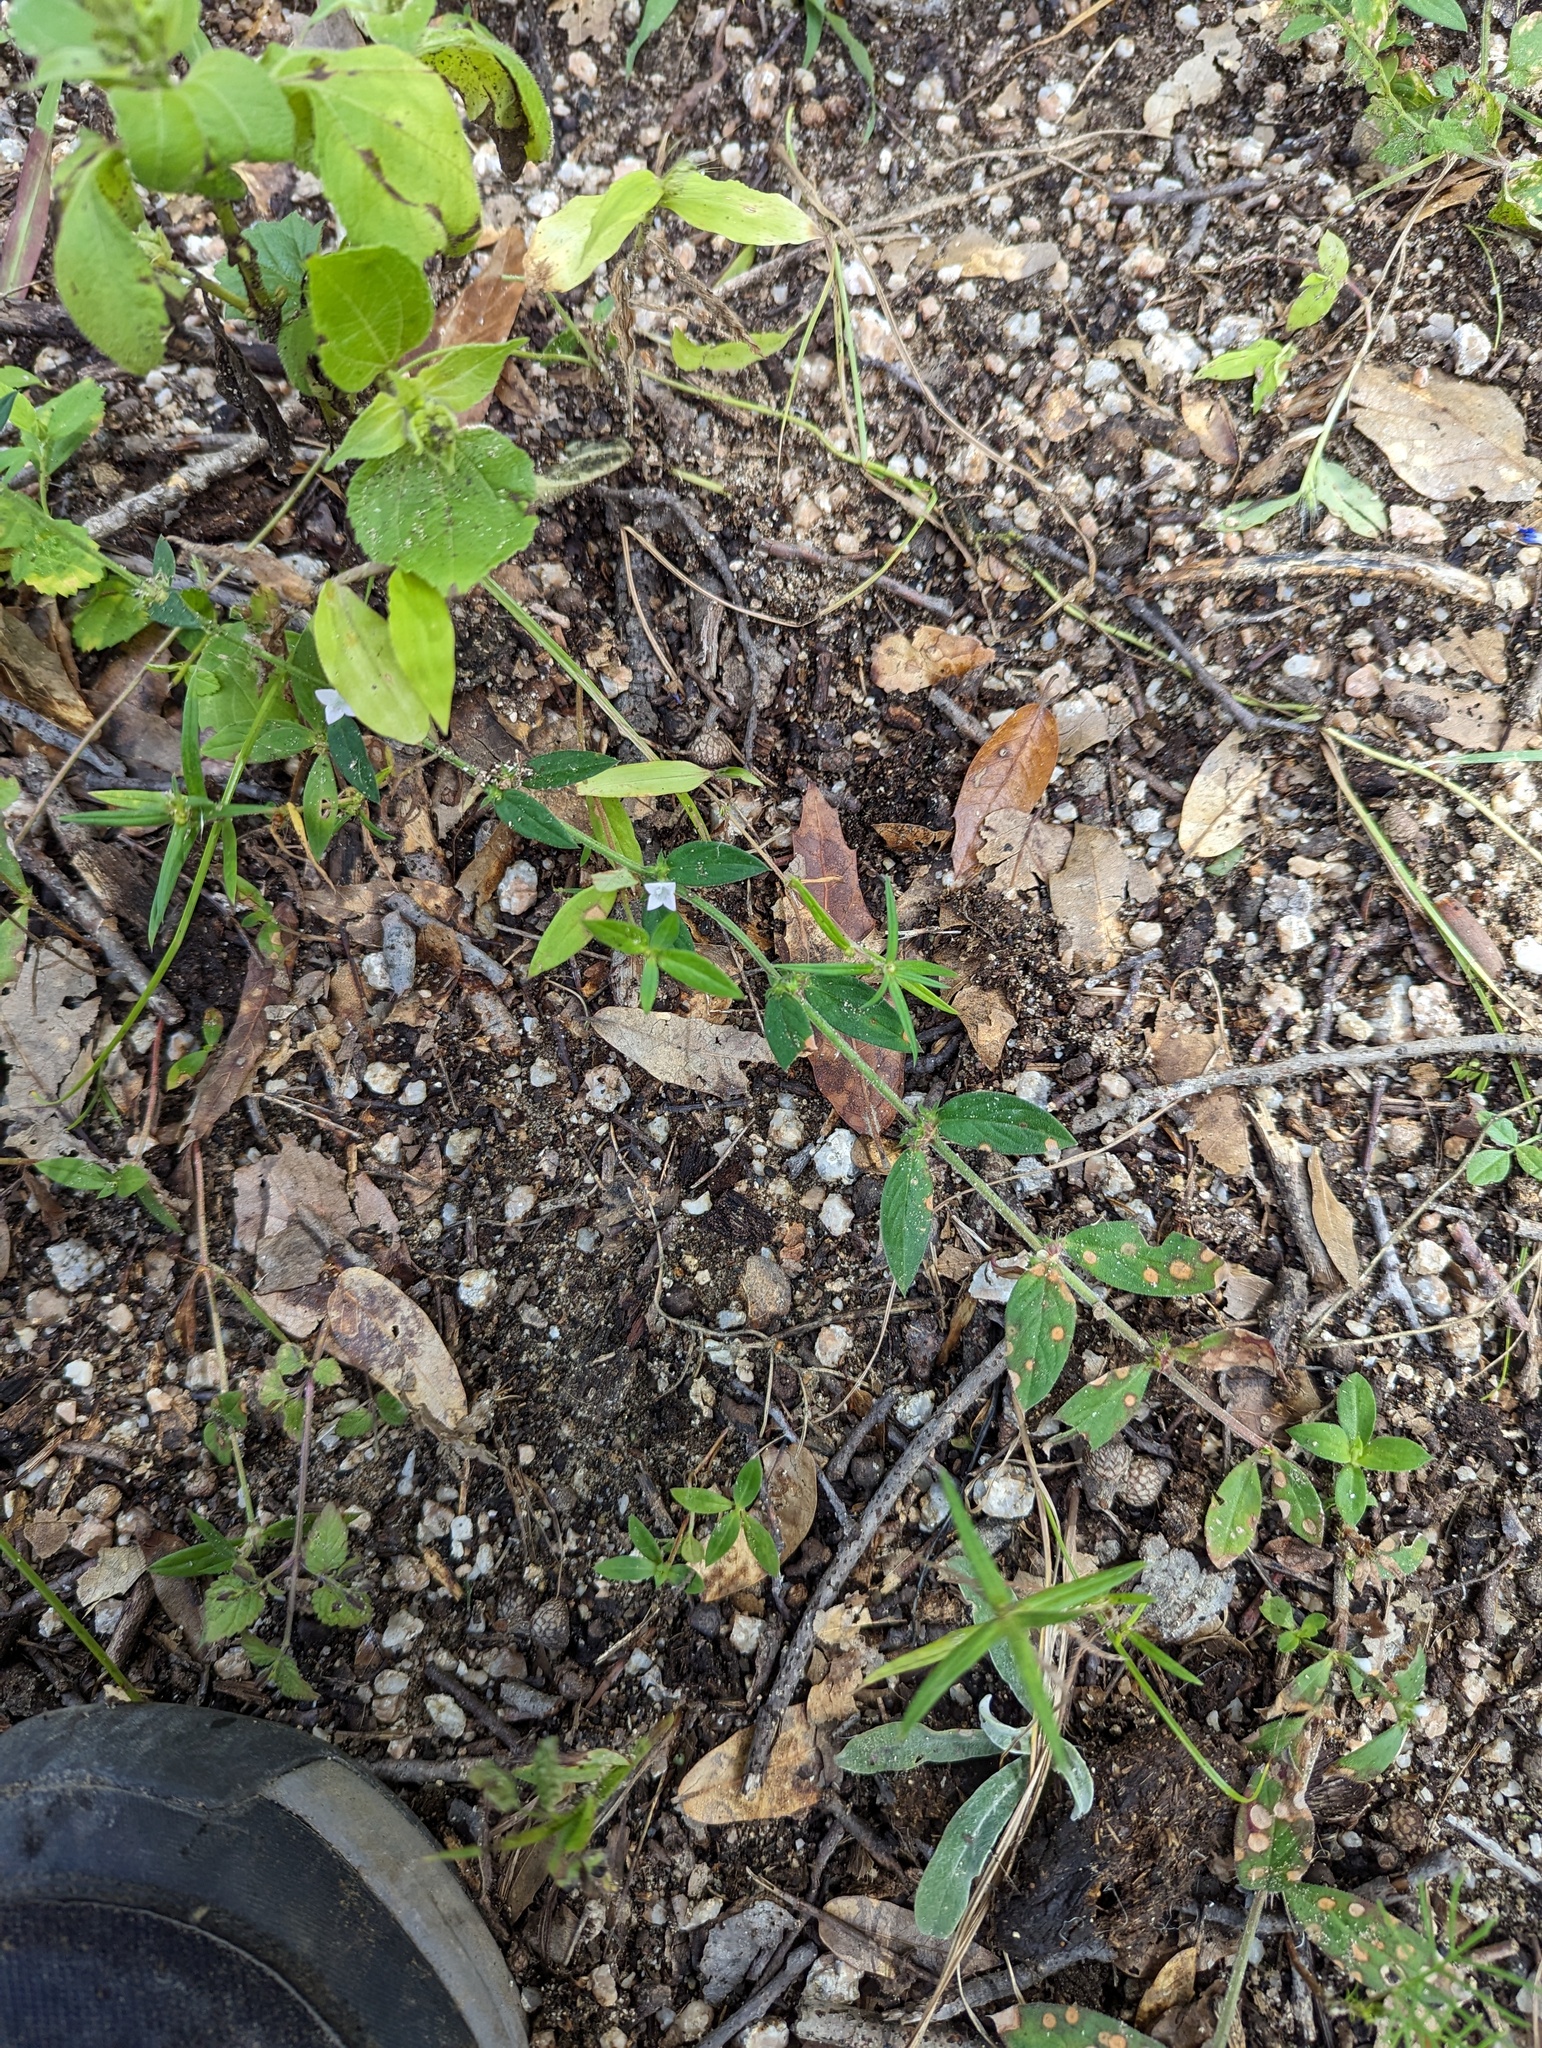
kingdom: Plantae
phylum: Tracheophyta
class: Magnoliopsida
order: Gentianales
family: Rubiaceae
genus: Richardia
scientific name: Richardia scabra
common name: Rough mexican clover
